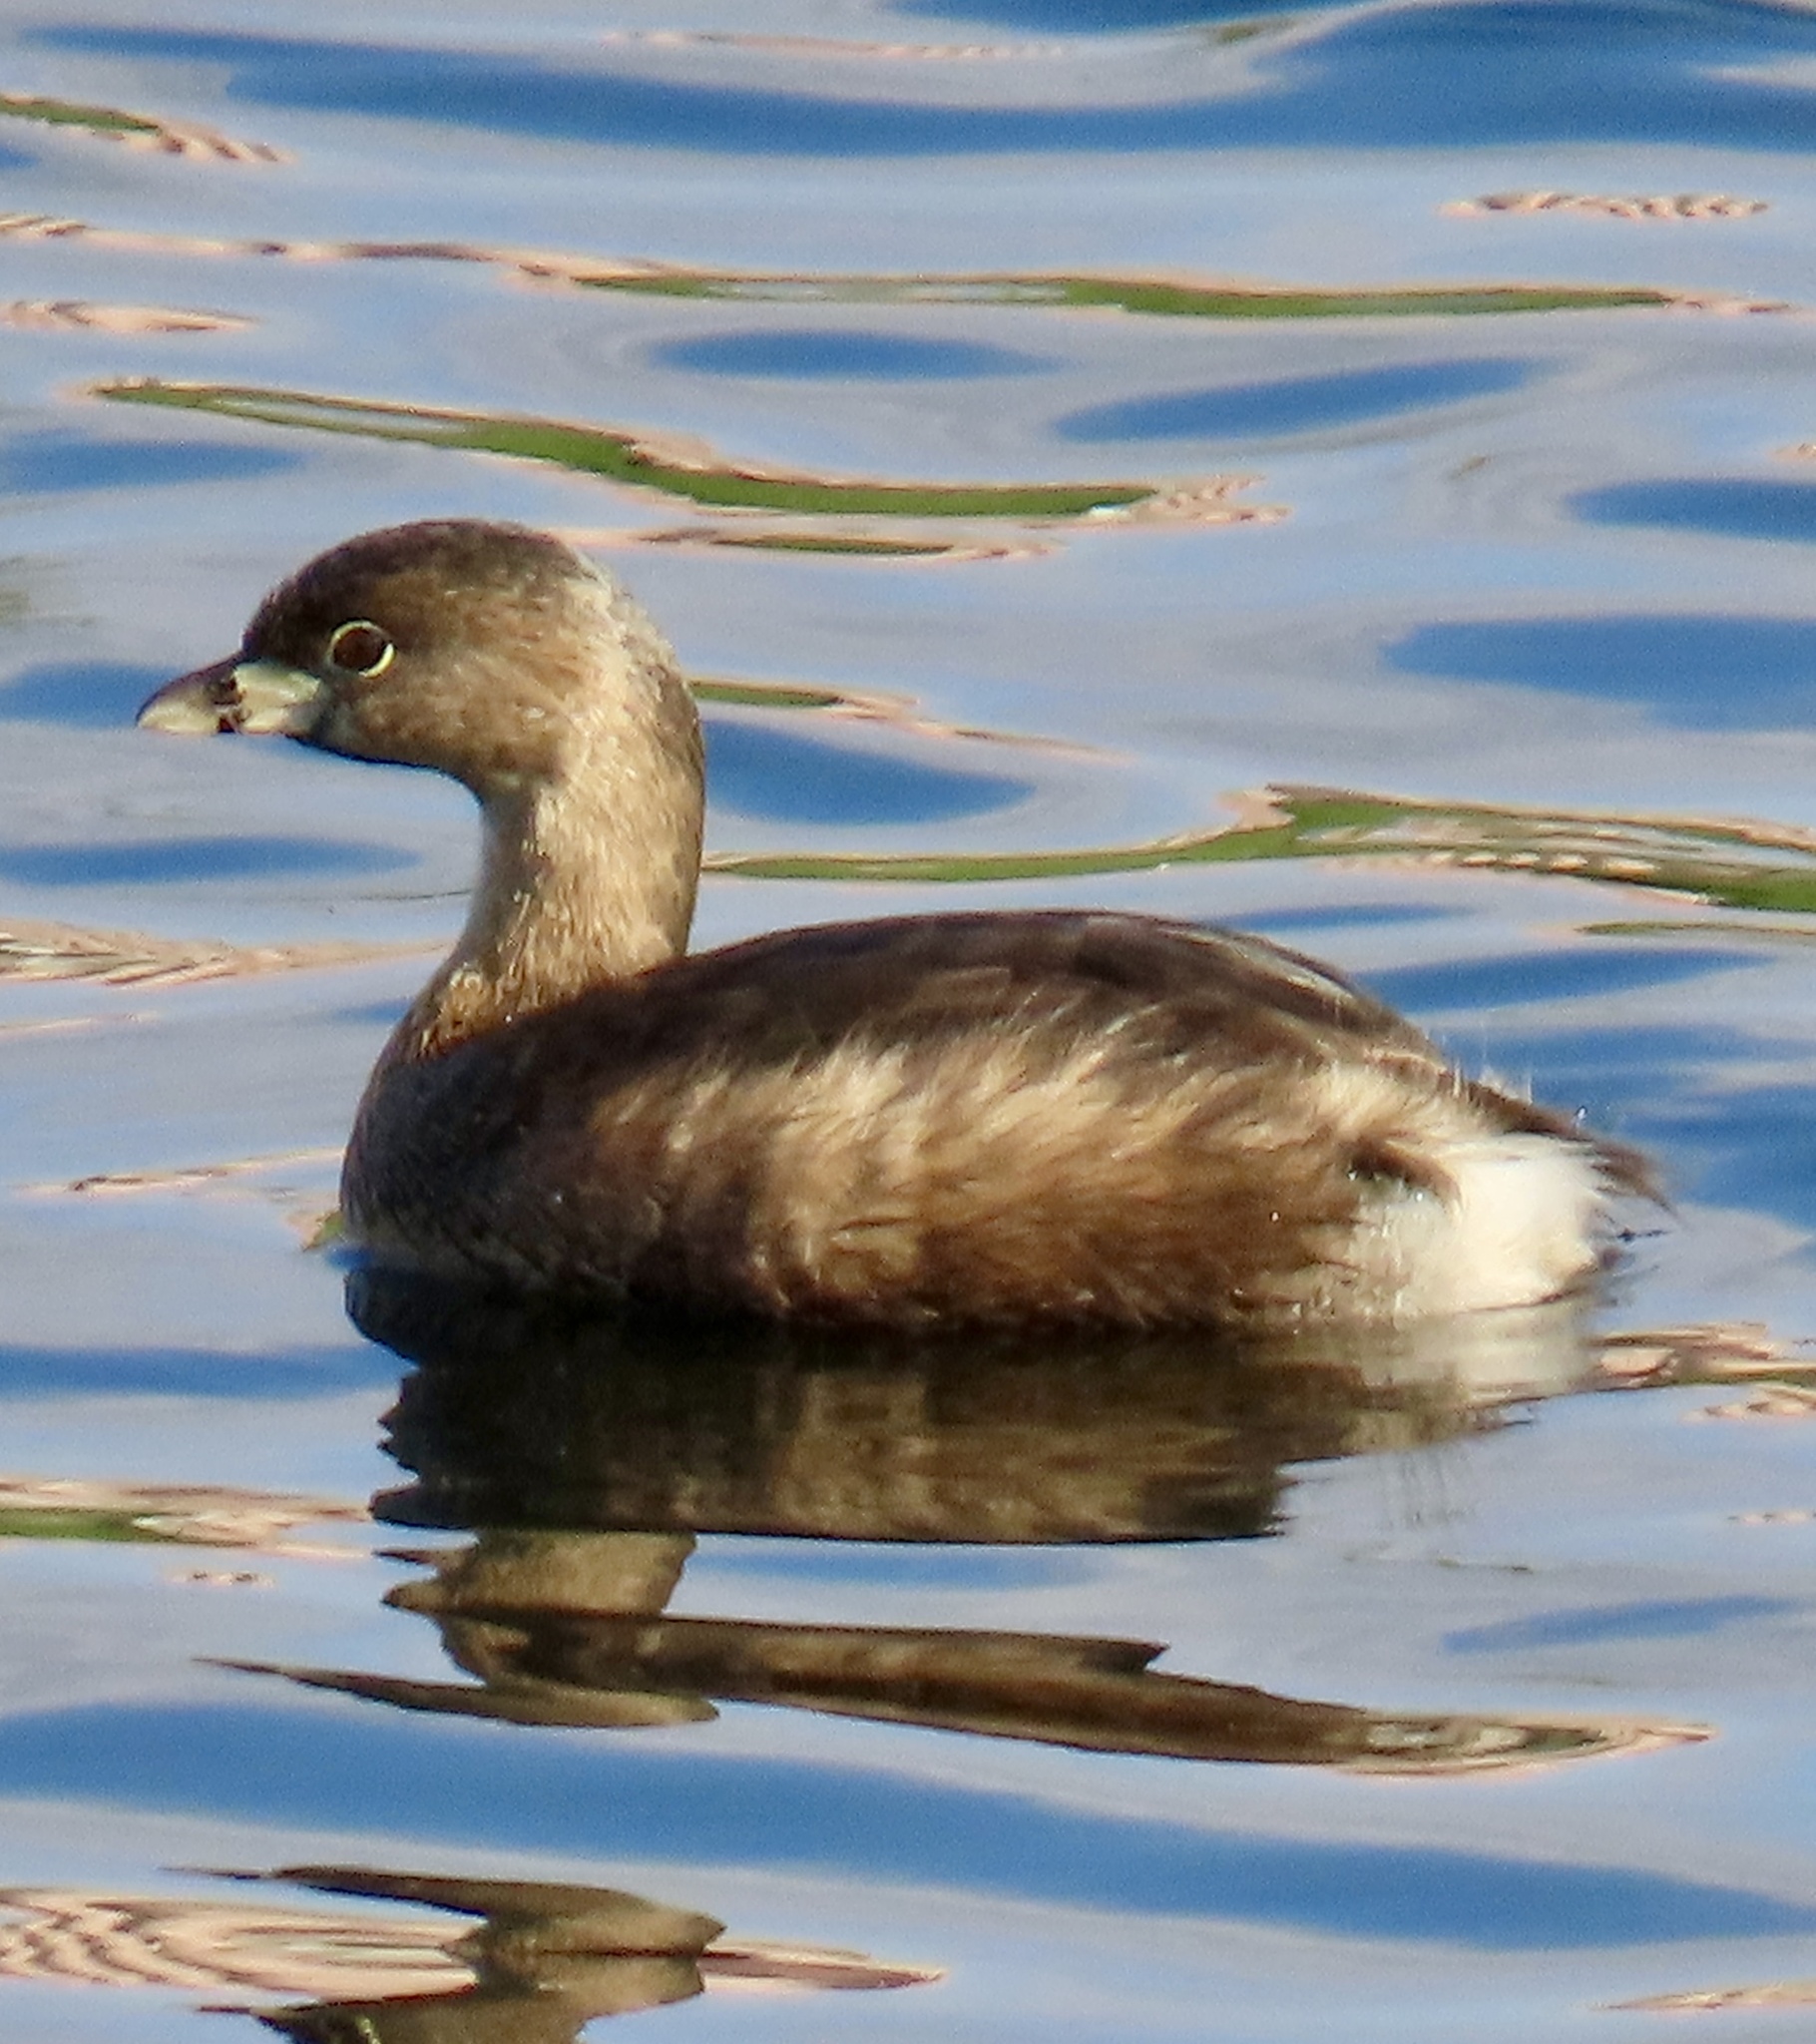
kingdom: Animalia
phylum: Chordata
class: Aves
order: Podicipediformes
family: Podicipedidae
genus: Podilymbus
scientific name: Podilymbus podiceps
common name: Pied-billed grebe
